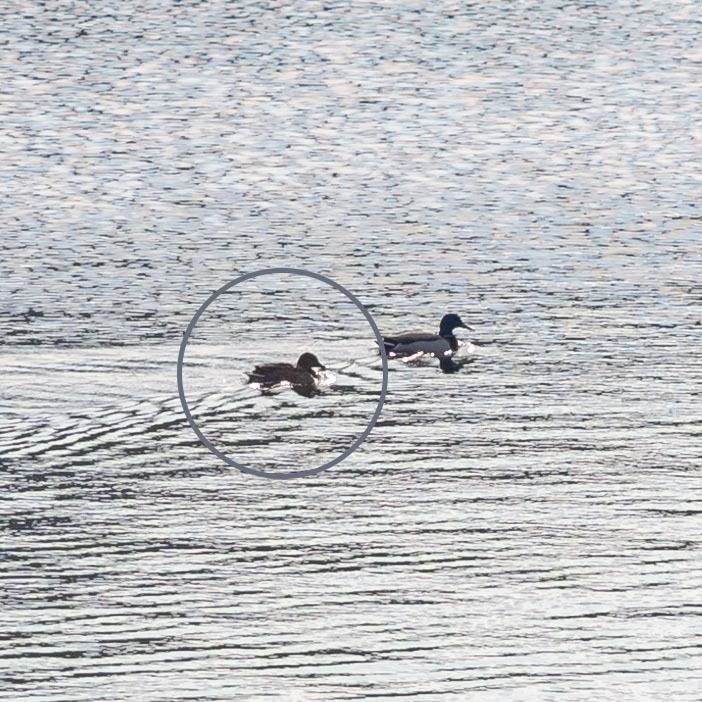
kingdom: Animalia
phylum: Chordata
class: Aves
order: Anseriformes
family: Anatidae
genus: Anas
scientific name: Anas platyrhynchos
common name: Mallard
